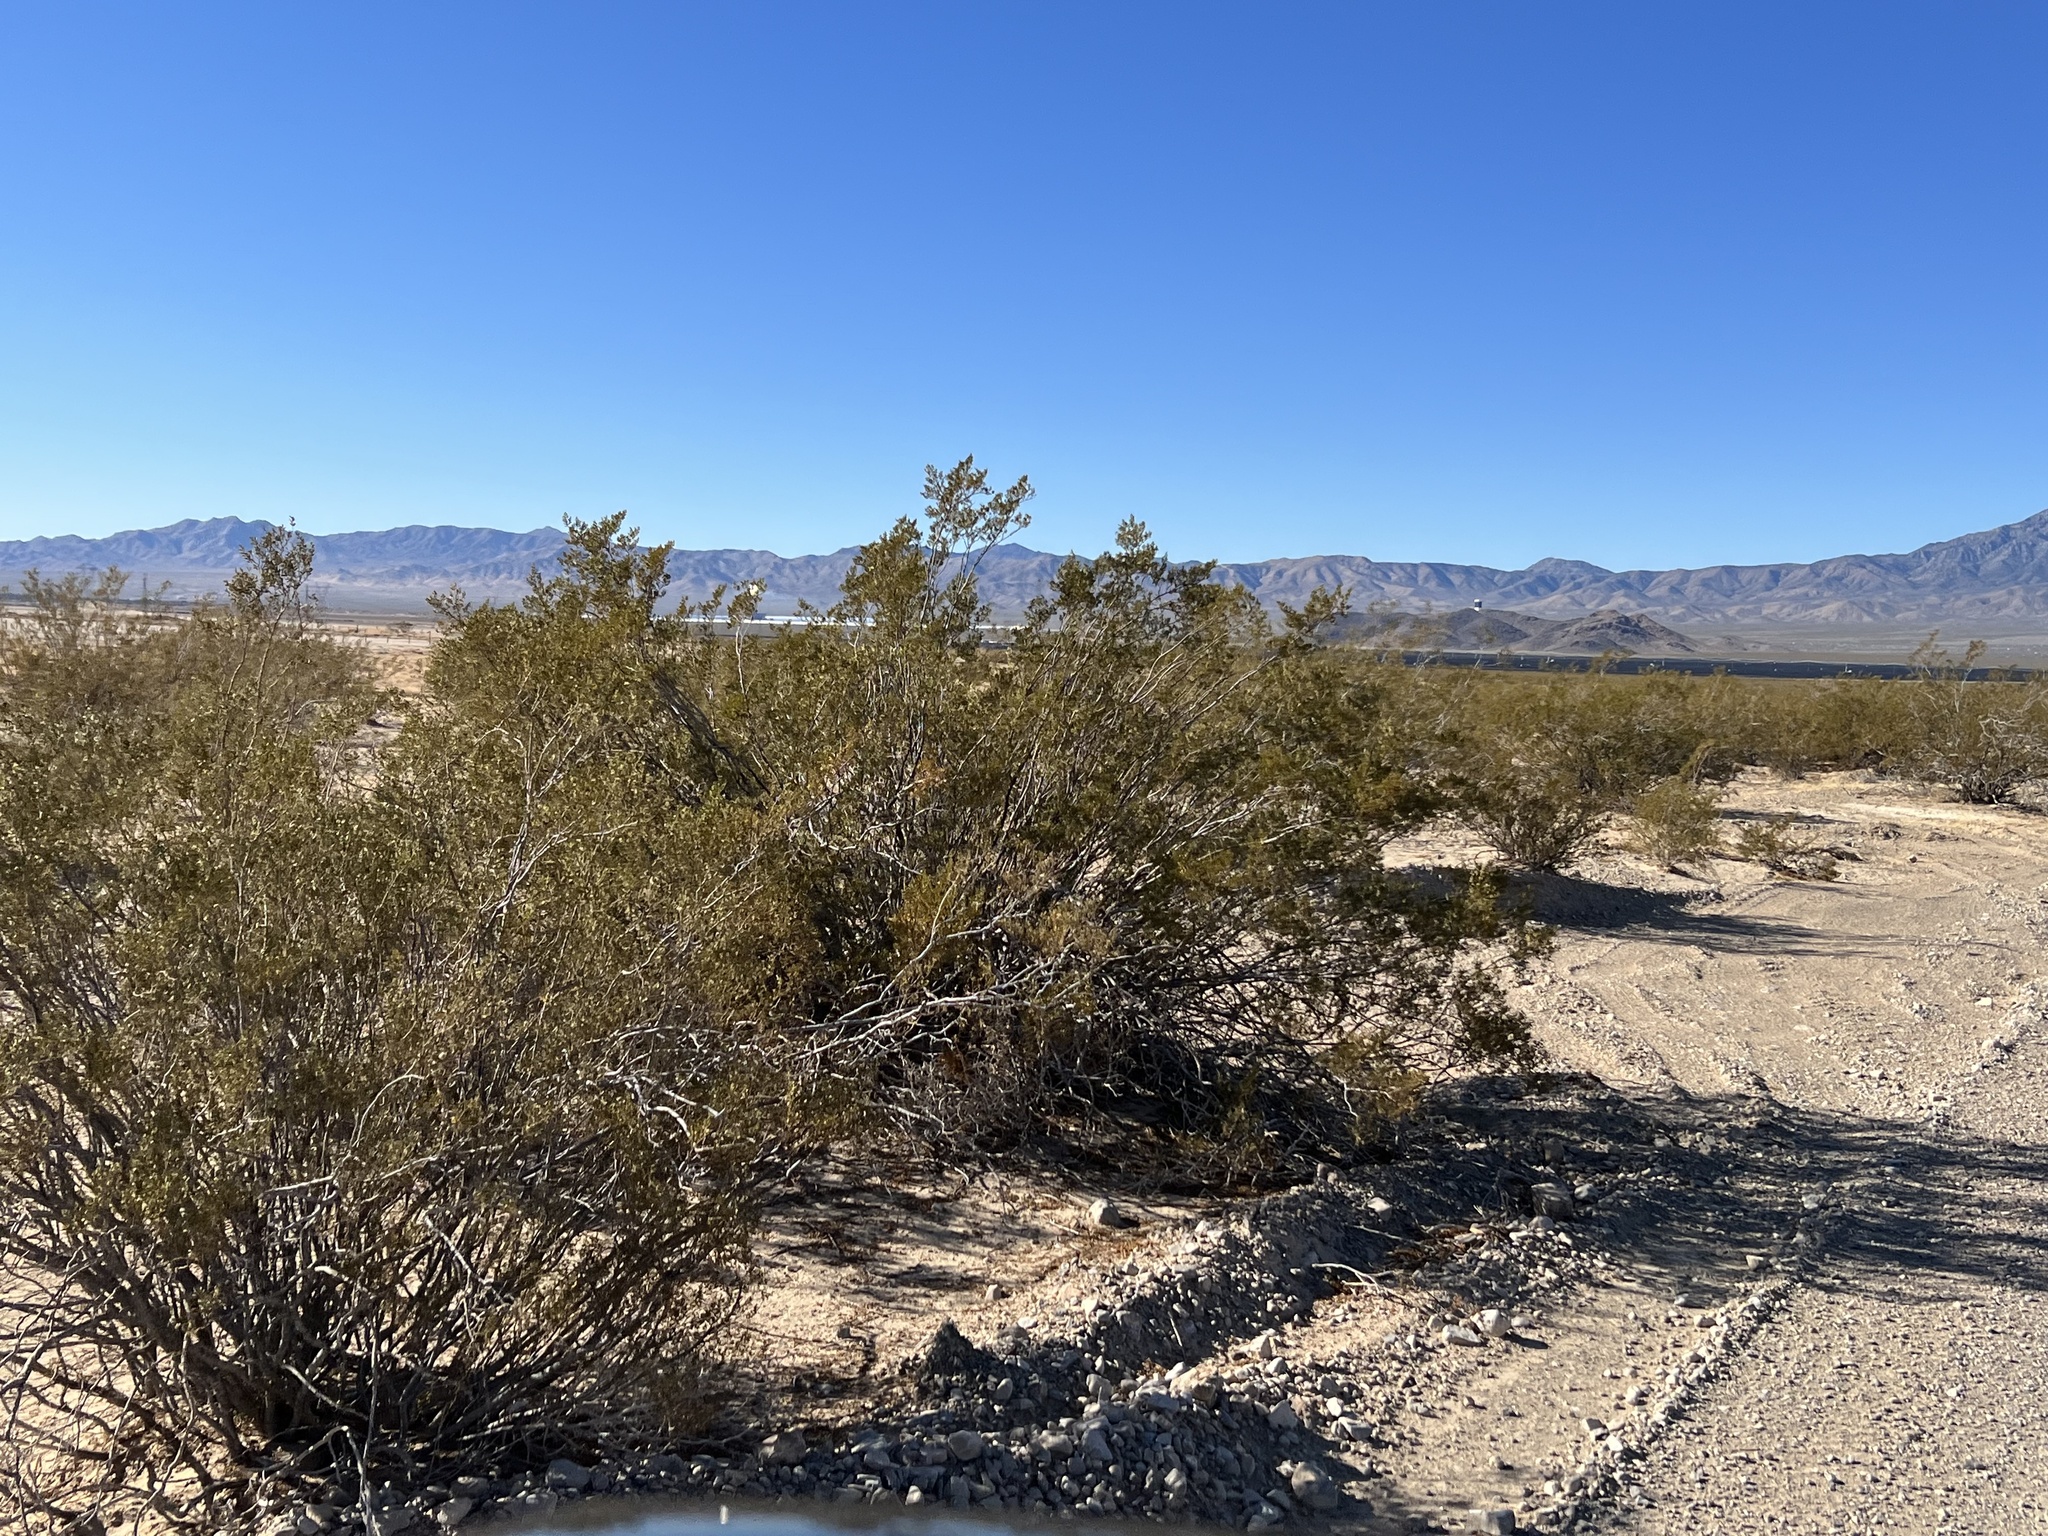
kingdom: Plantae
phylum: Tracheophyta
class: Magnoliopsida
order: Zygophyllales
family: Zygophyllaceae
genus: Larrea
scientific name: Larrea tridentata
